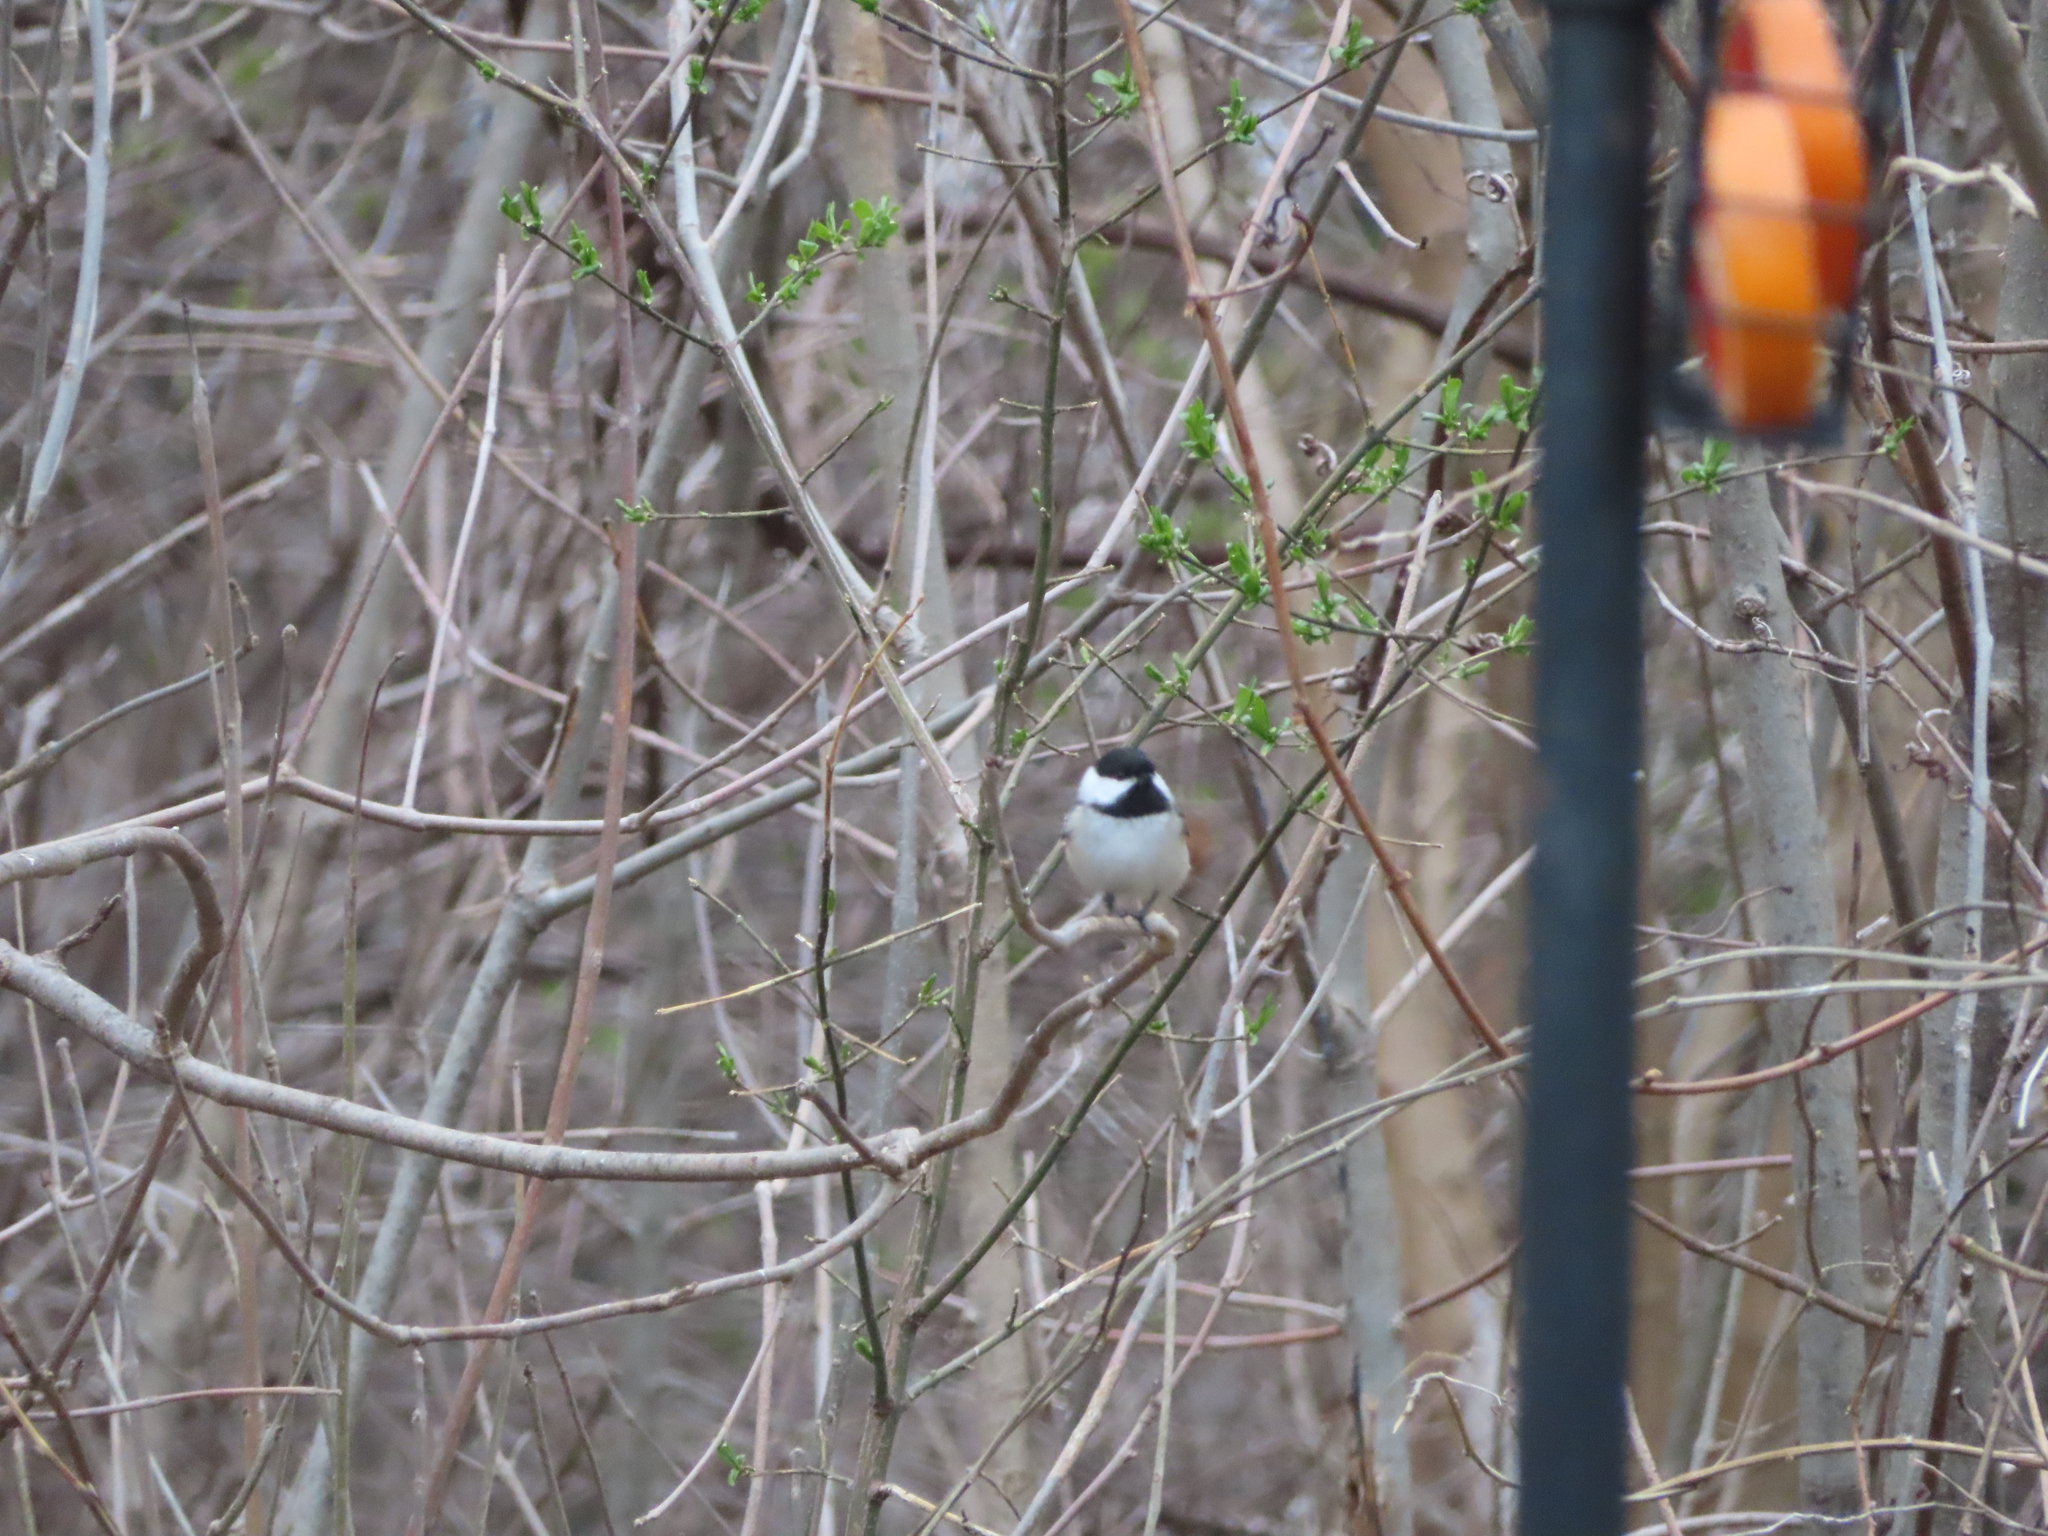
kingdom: Animalia
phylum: Chordata
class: Aves
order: Passeriformes
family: Paridae
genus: Poecile
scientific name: Poecile atricapillus
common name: Black-capped chickadee
